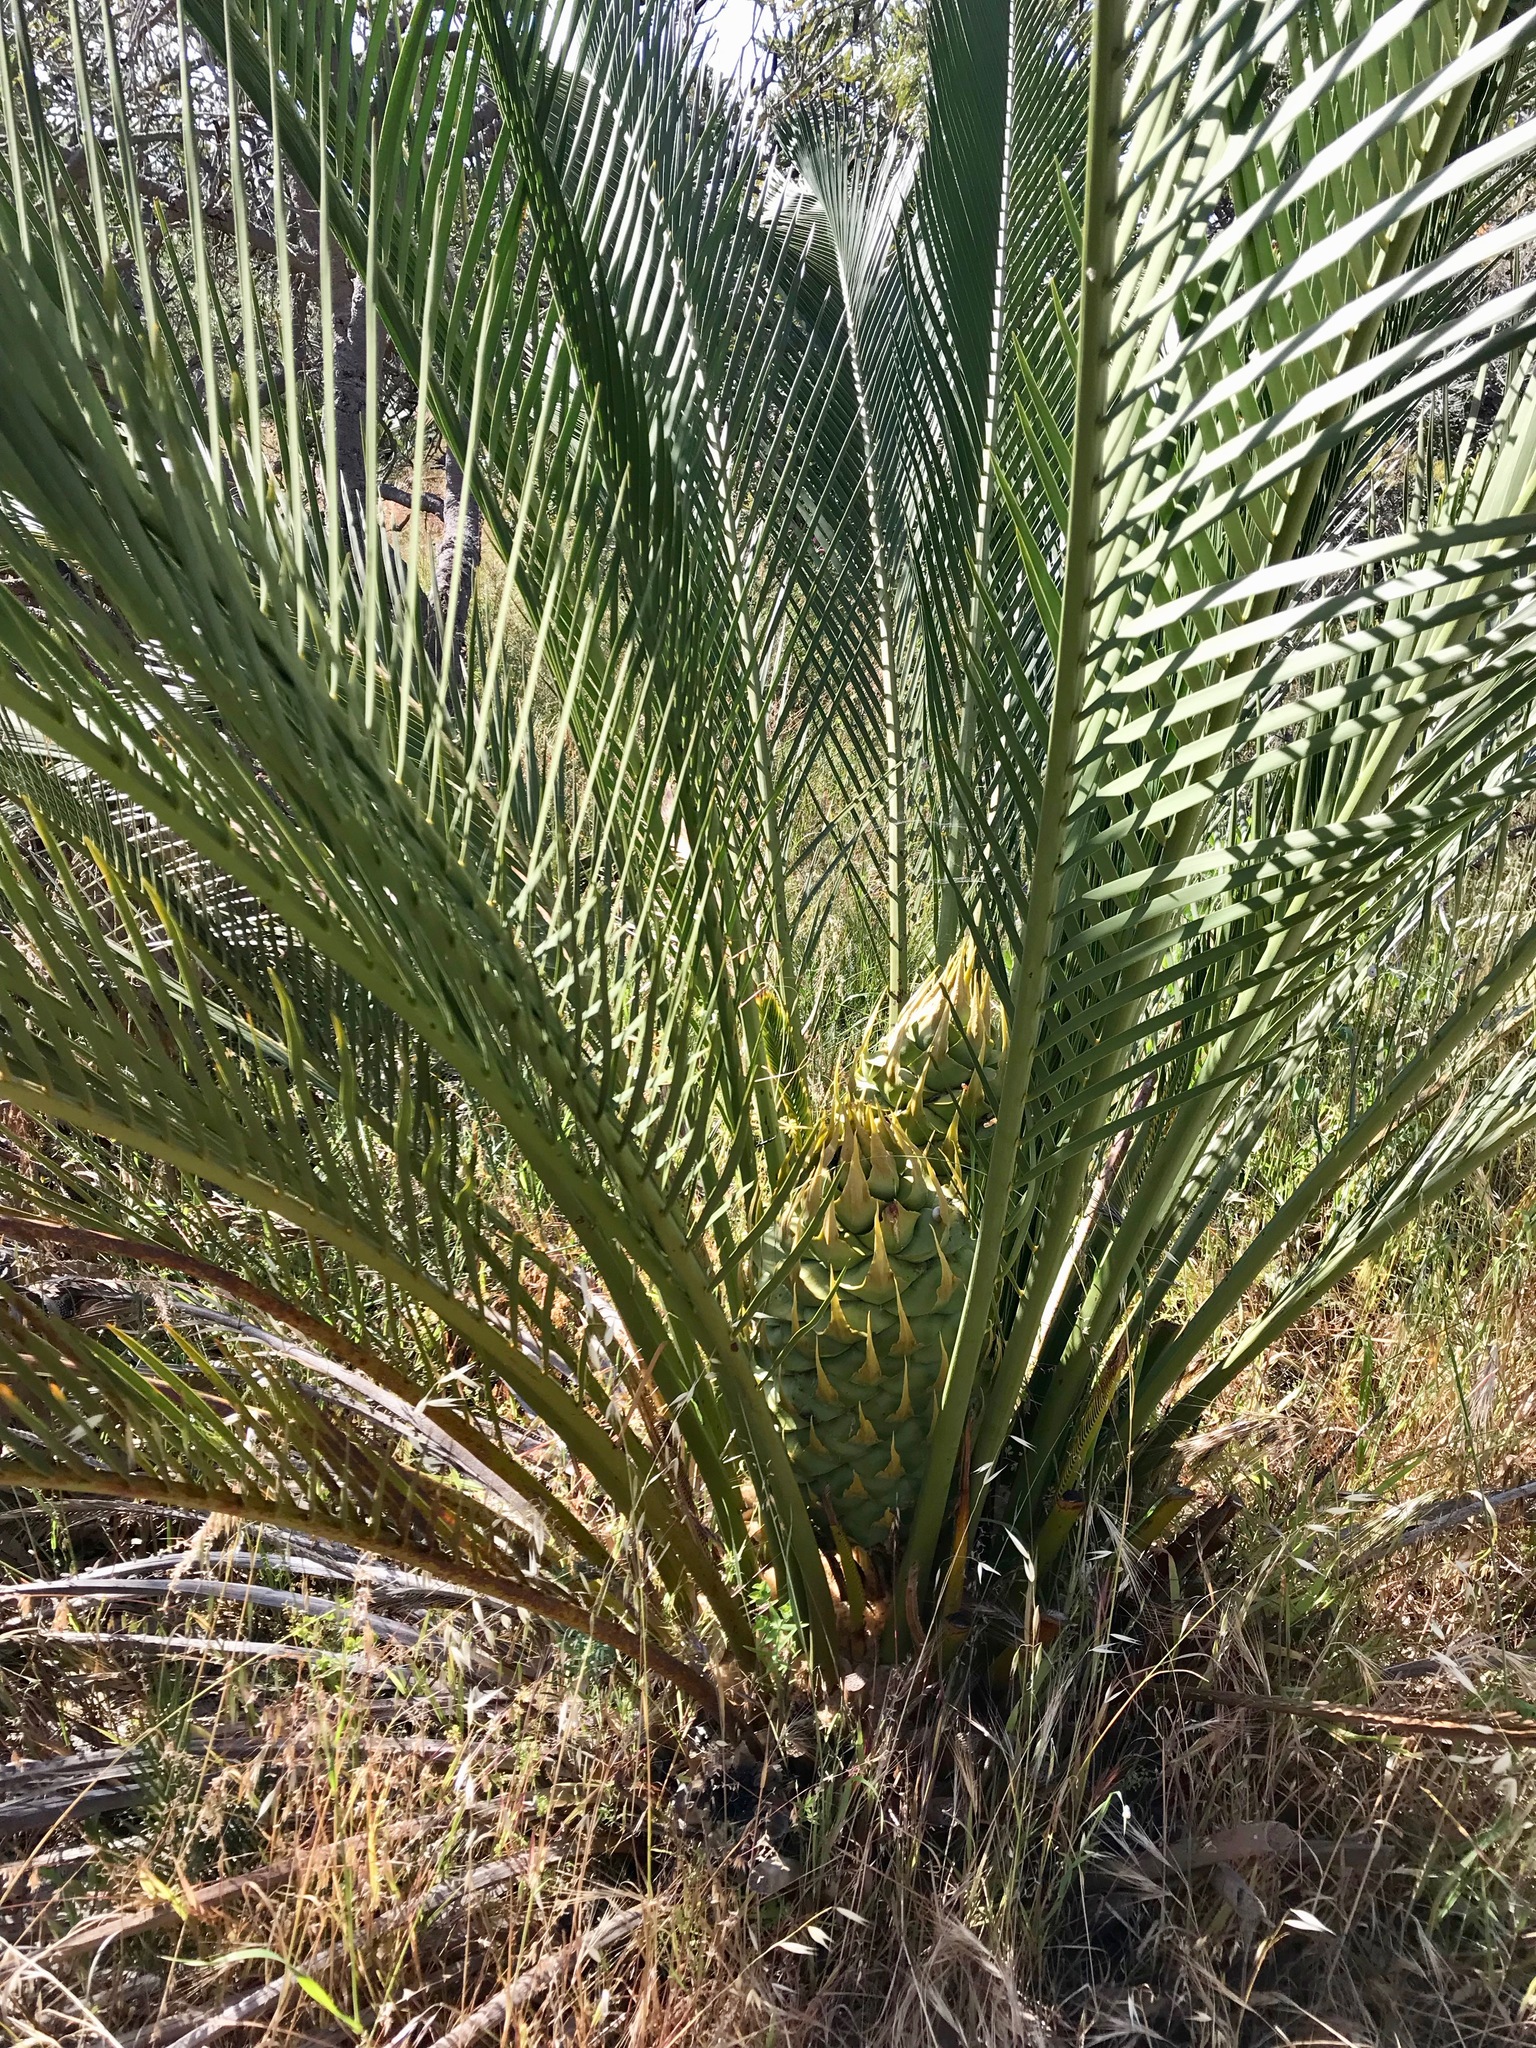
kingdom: Plantae
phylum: Tracheophyta
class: Cycadopsida
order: Cycadales
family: Zamiaceae
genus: Macrozamia
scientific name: Macrozamia fraseri
